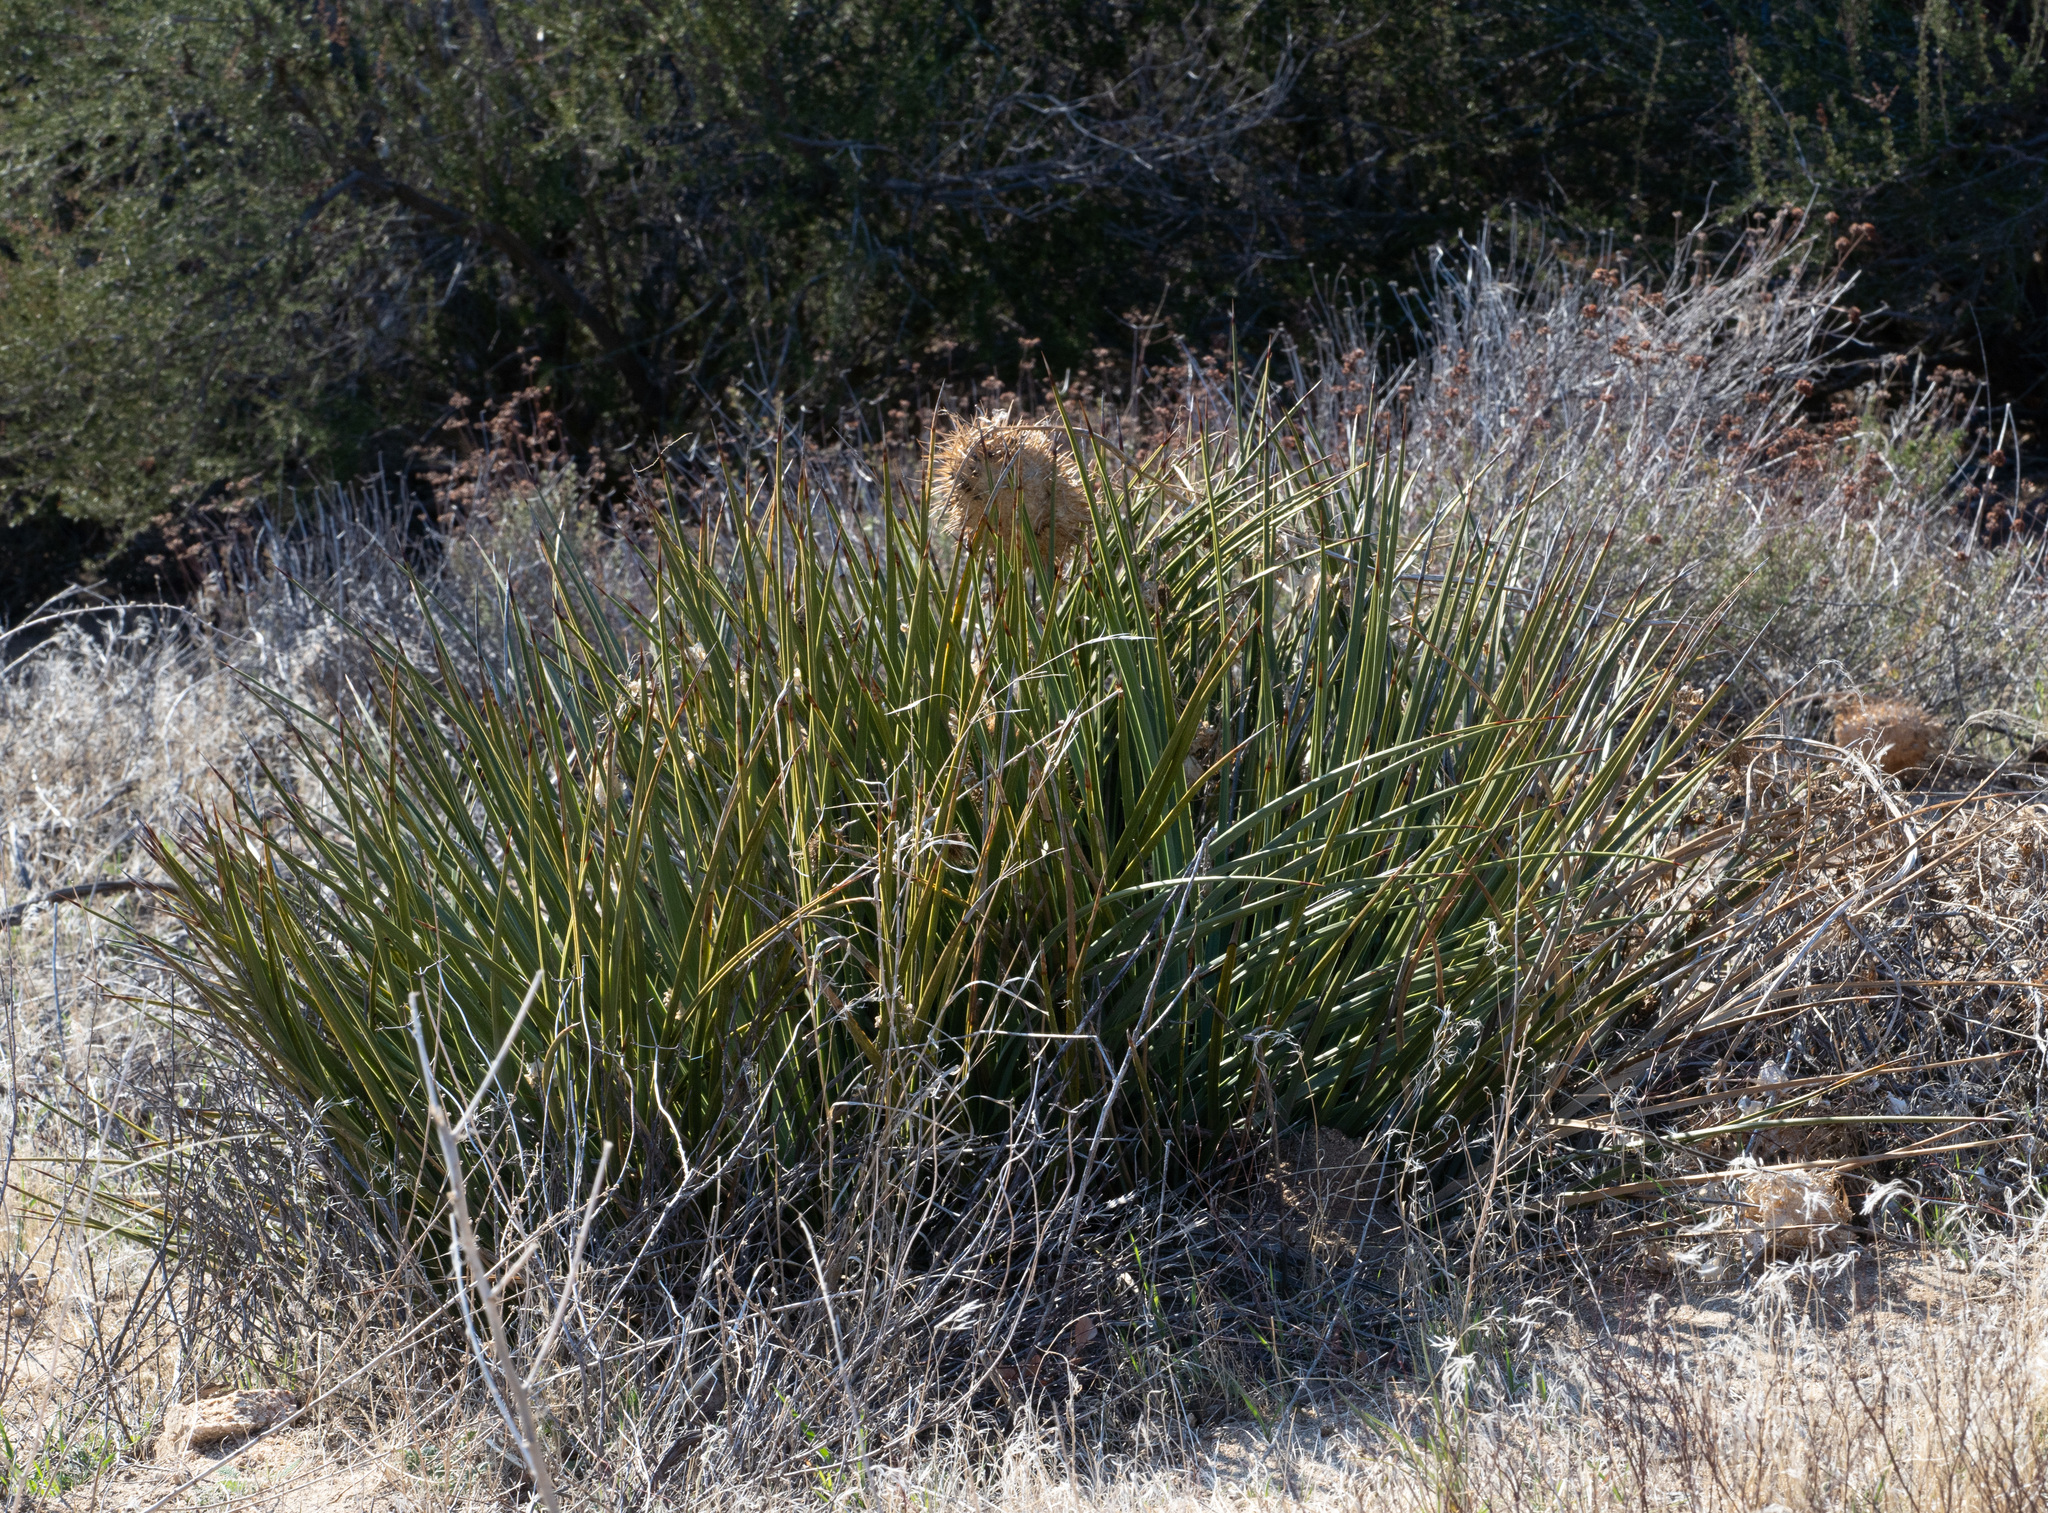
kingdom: Plantae
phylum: Tracheophyta
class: Liliopsida
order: Asparagales
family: Asparagaceae
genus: Hesperoyucca
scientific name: Hesperoyucca whipplei
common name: Our lord's-candle
